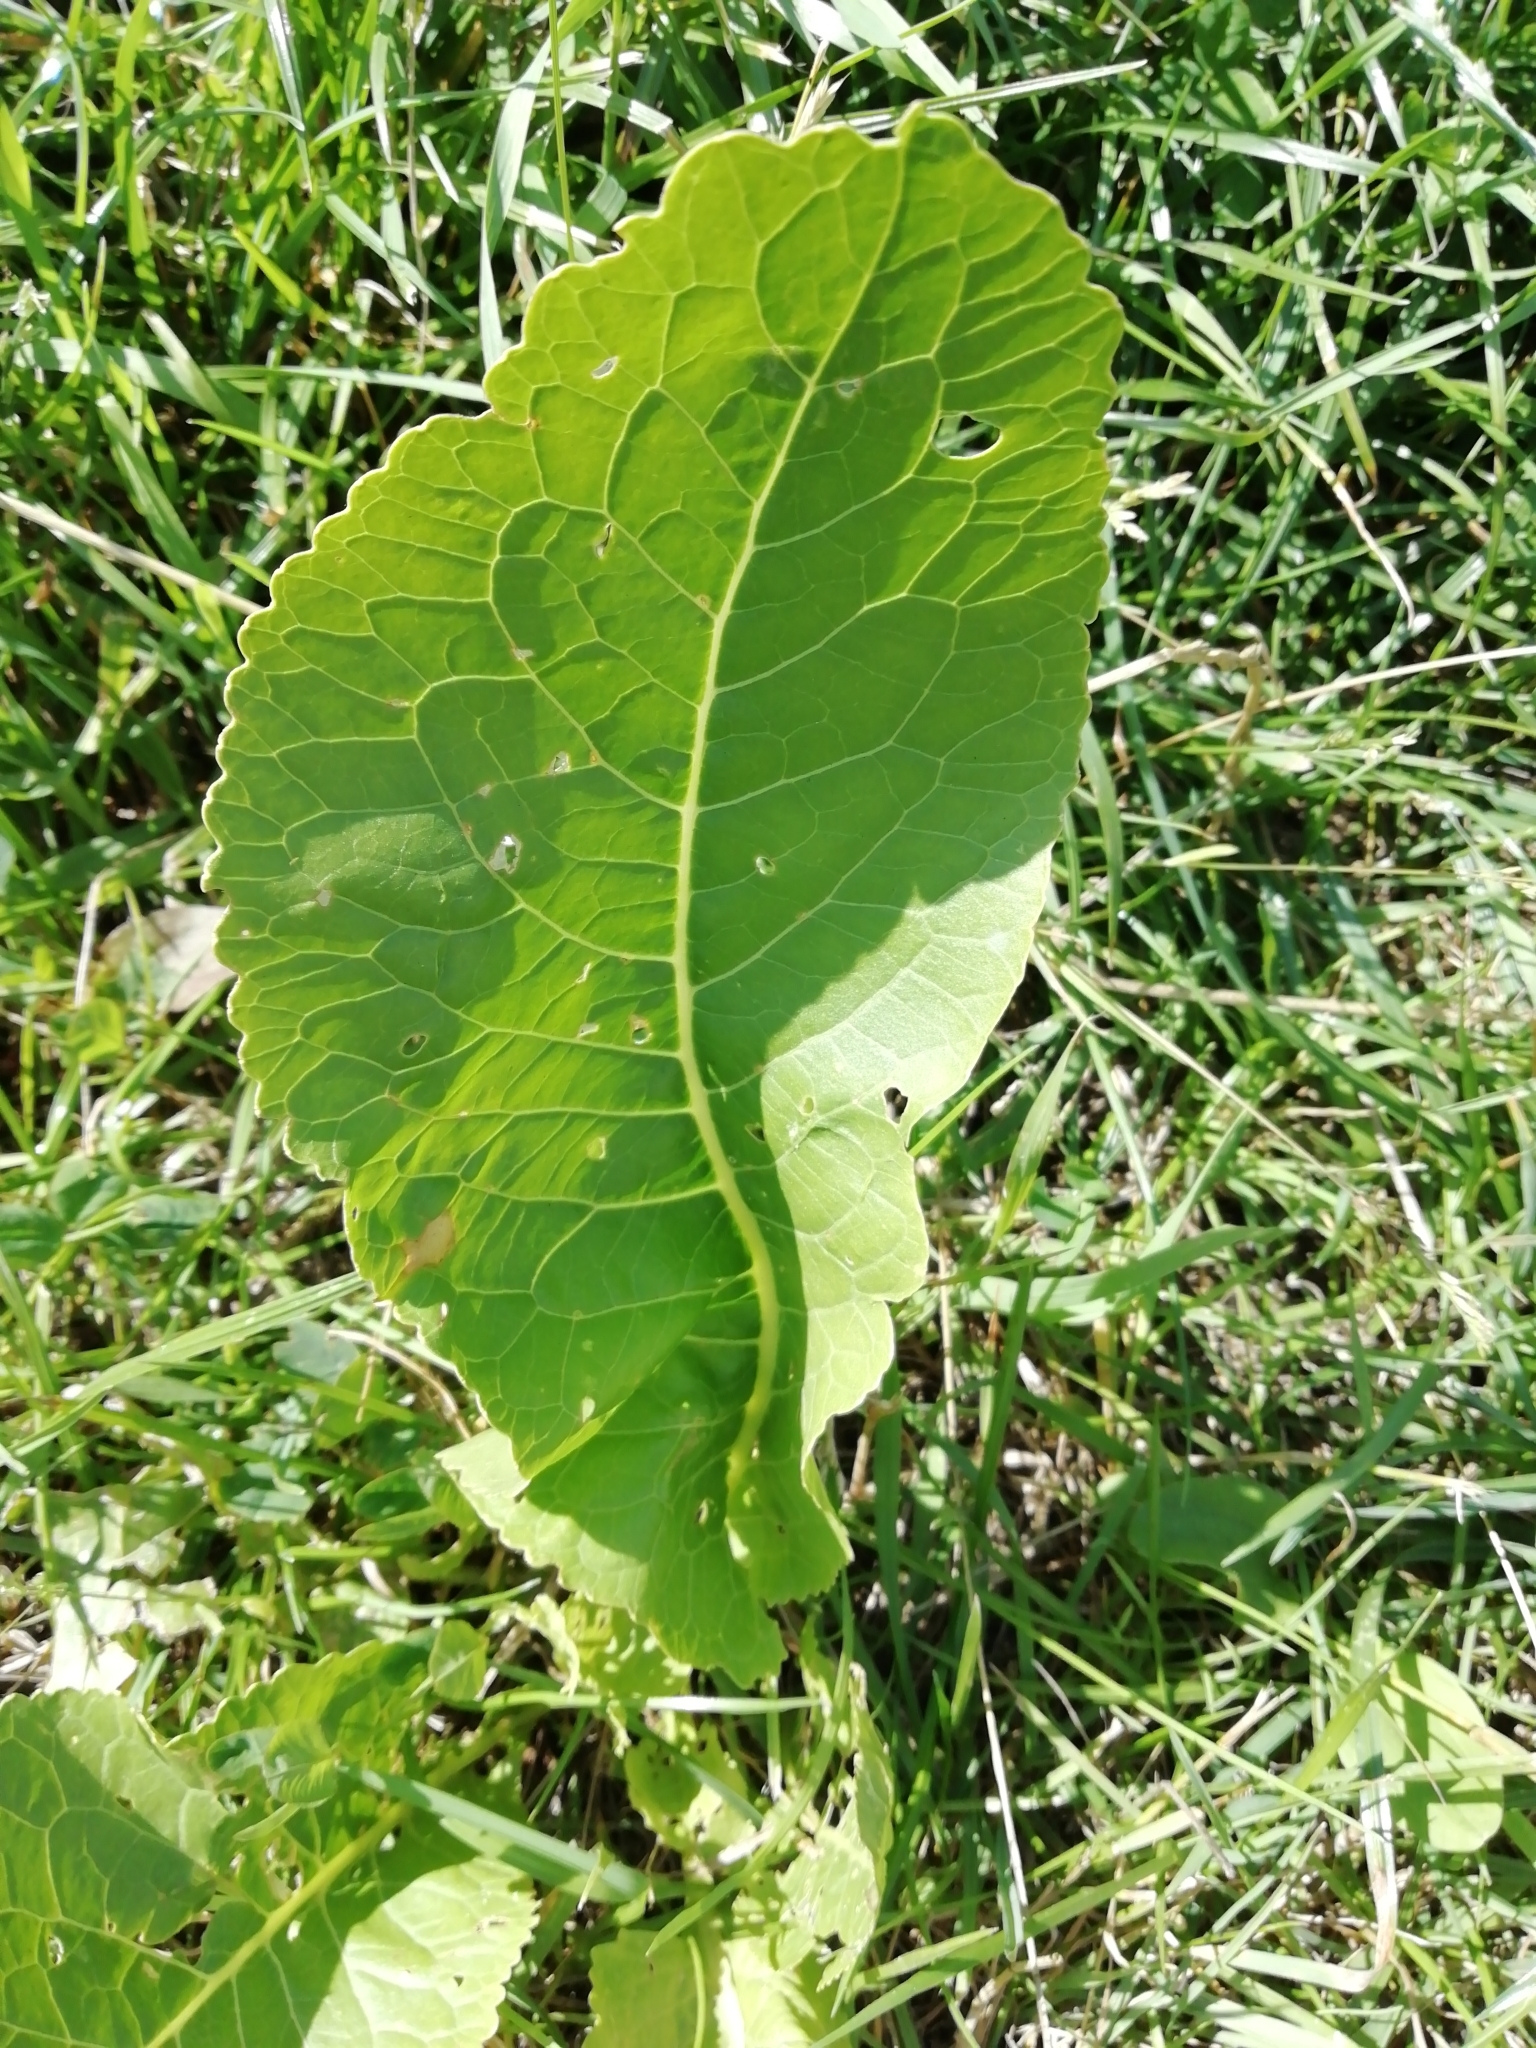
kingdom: Plantae
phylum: Tracheophyta
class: Magnoliopsida
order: Brassicales
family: Brassicaceae
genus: Armoracia
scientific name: Armoracia rusticana
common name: Horseradish
